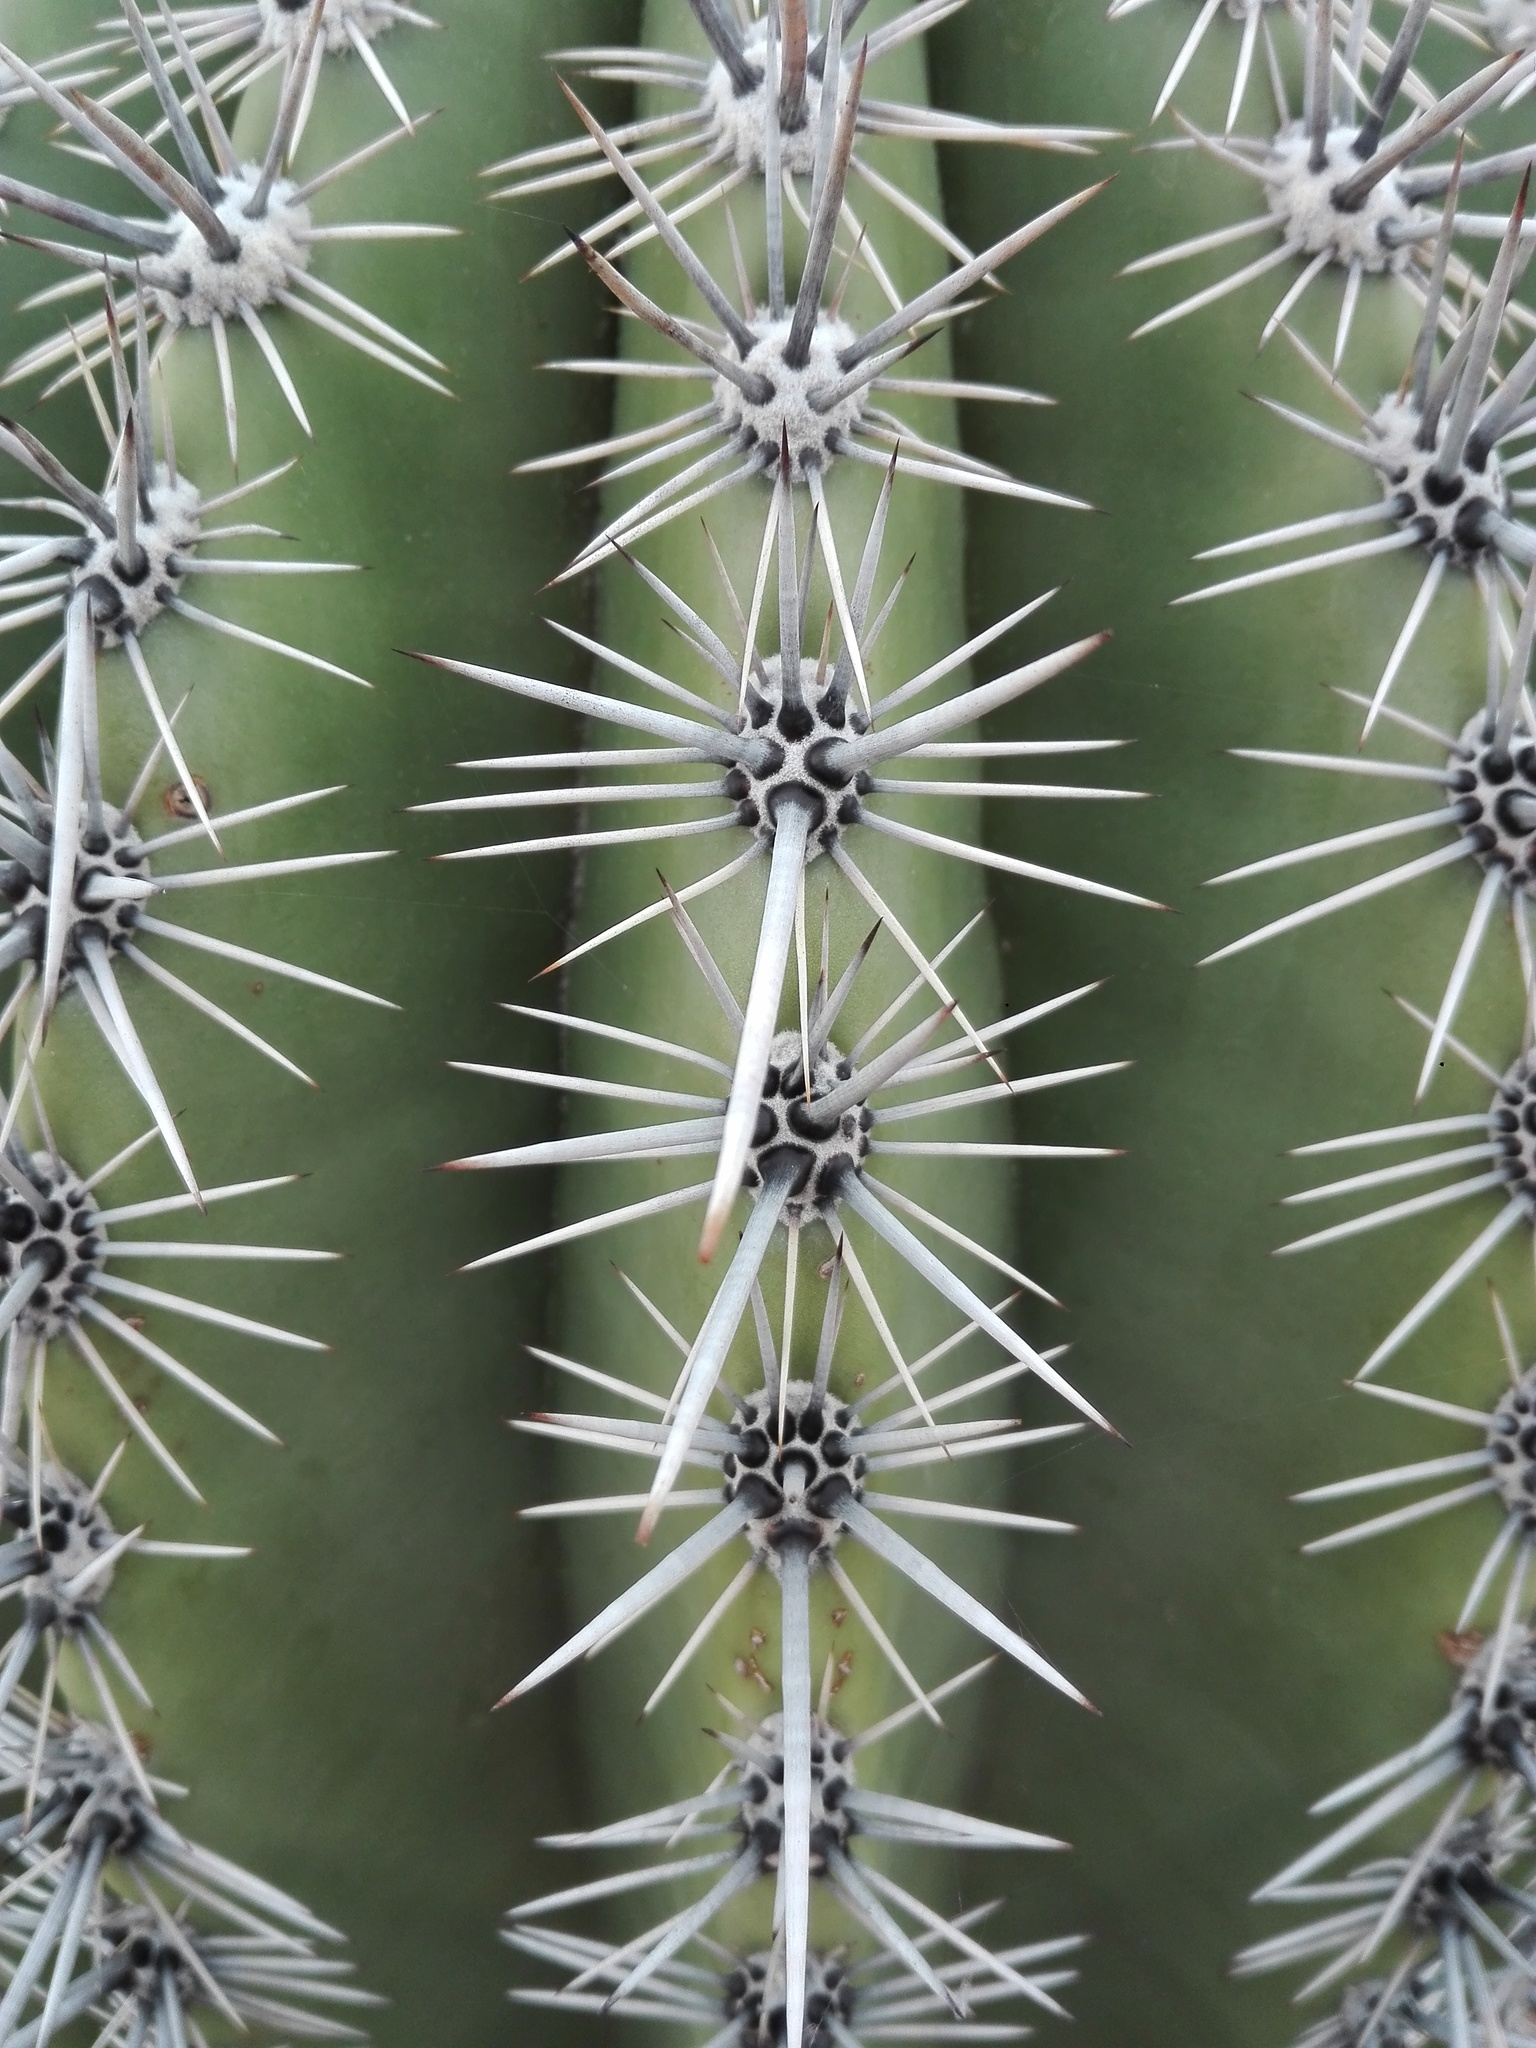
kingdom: Plantae
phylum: Tracheophyta
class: Magnoliopsida
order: Caryophyllales
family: Cactaceae
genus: Carnegiea
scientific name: Carnegiea gigantea
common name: Saguaro
